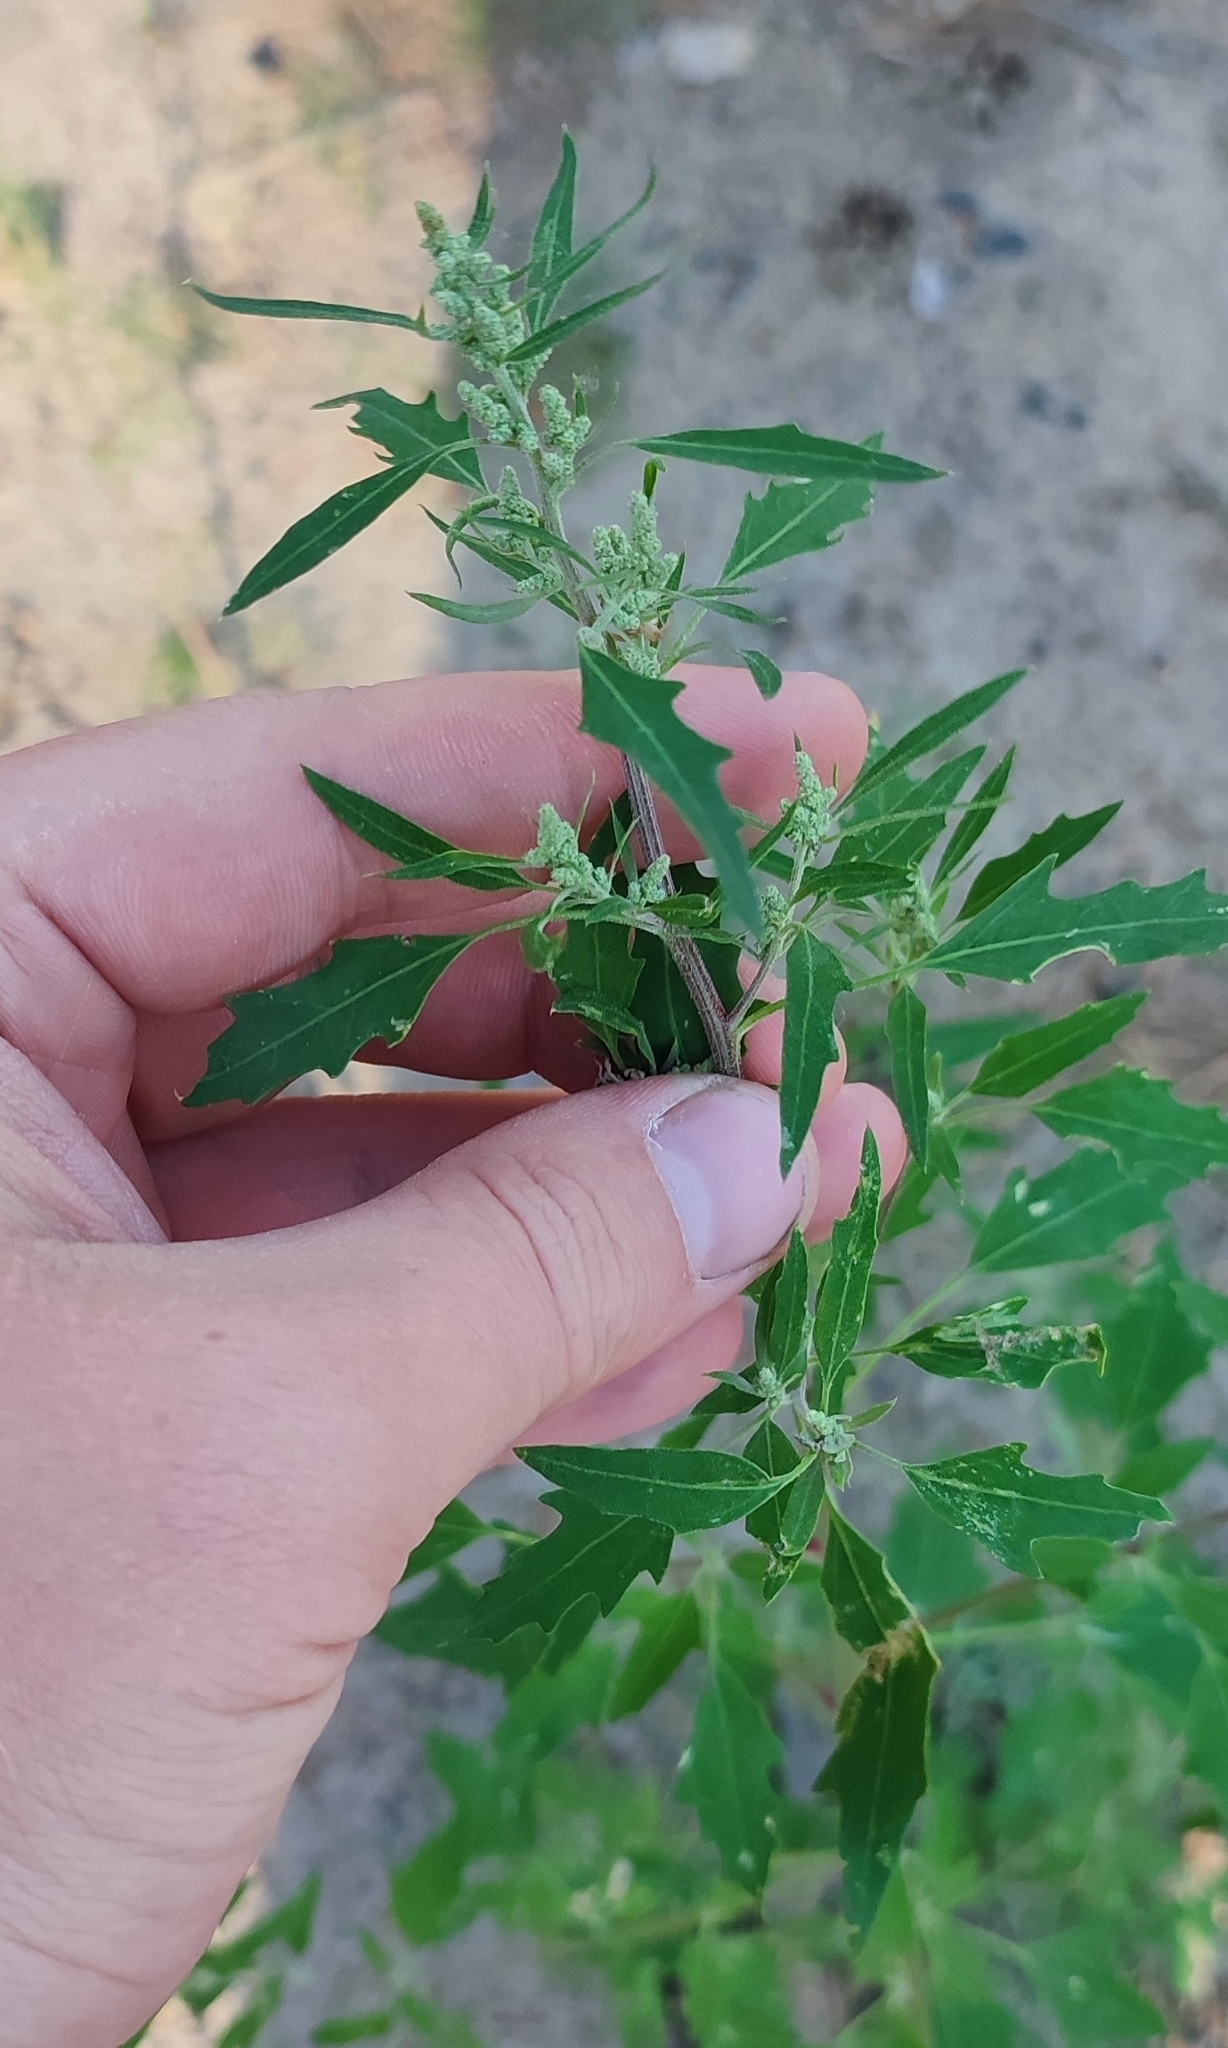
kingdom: Plantae
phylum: Tracheophyta
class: Magnoliopsida
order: Caryophyllales
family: Amaranthaceae
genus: Chenopodium
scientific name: Chenopodium album
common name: Fat-hen
